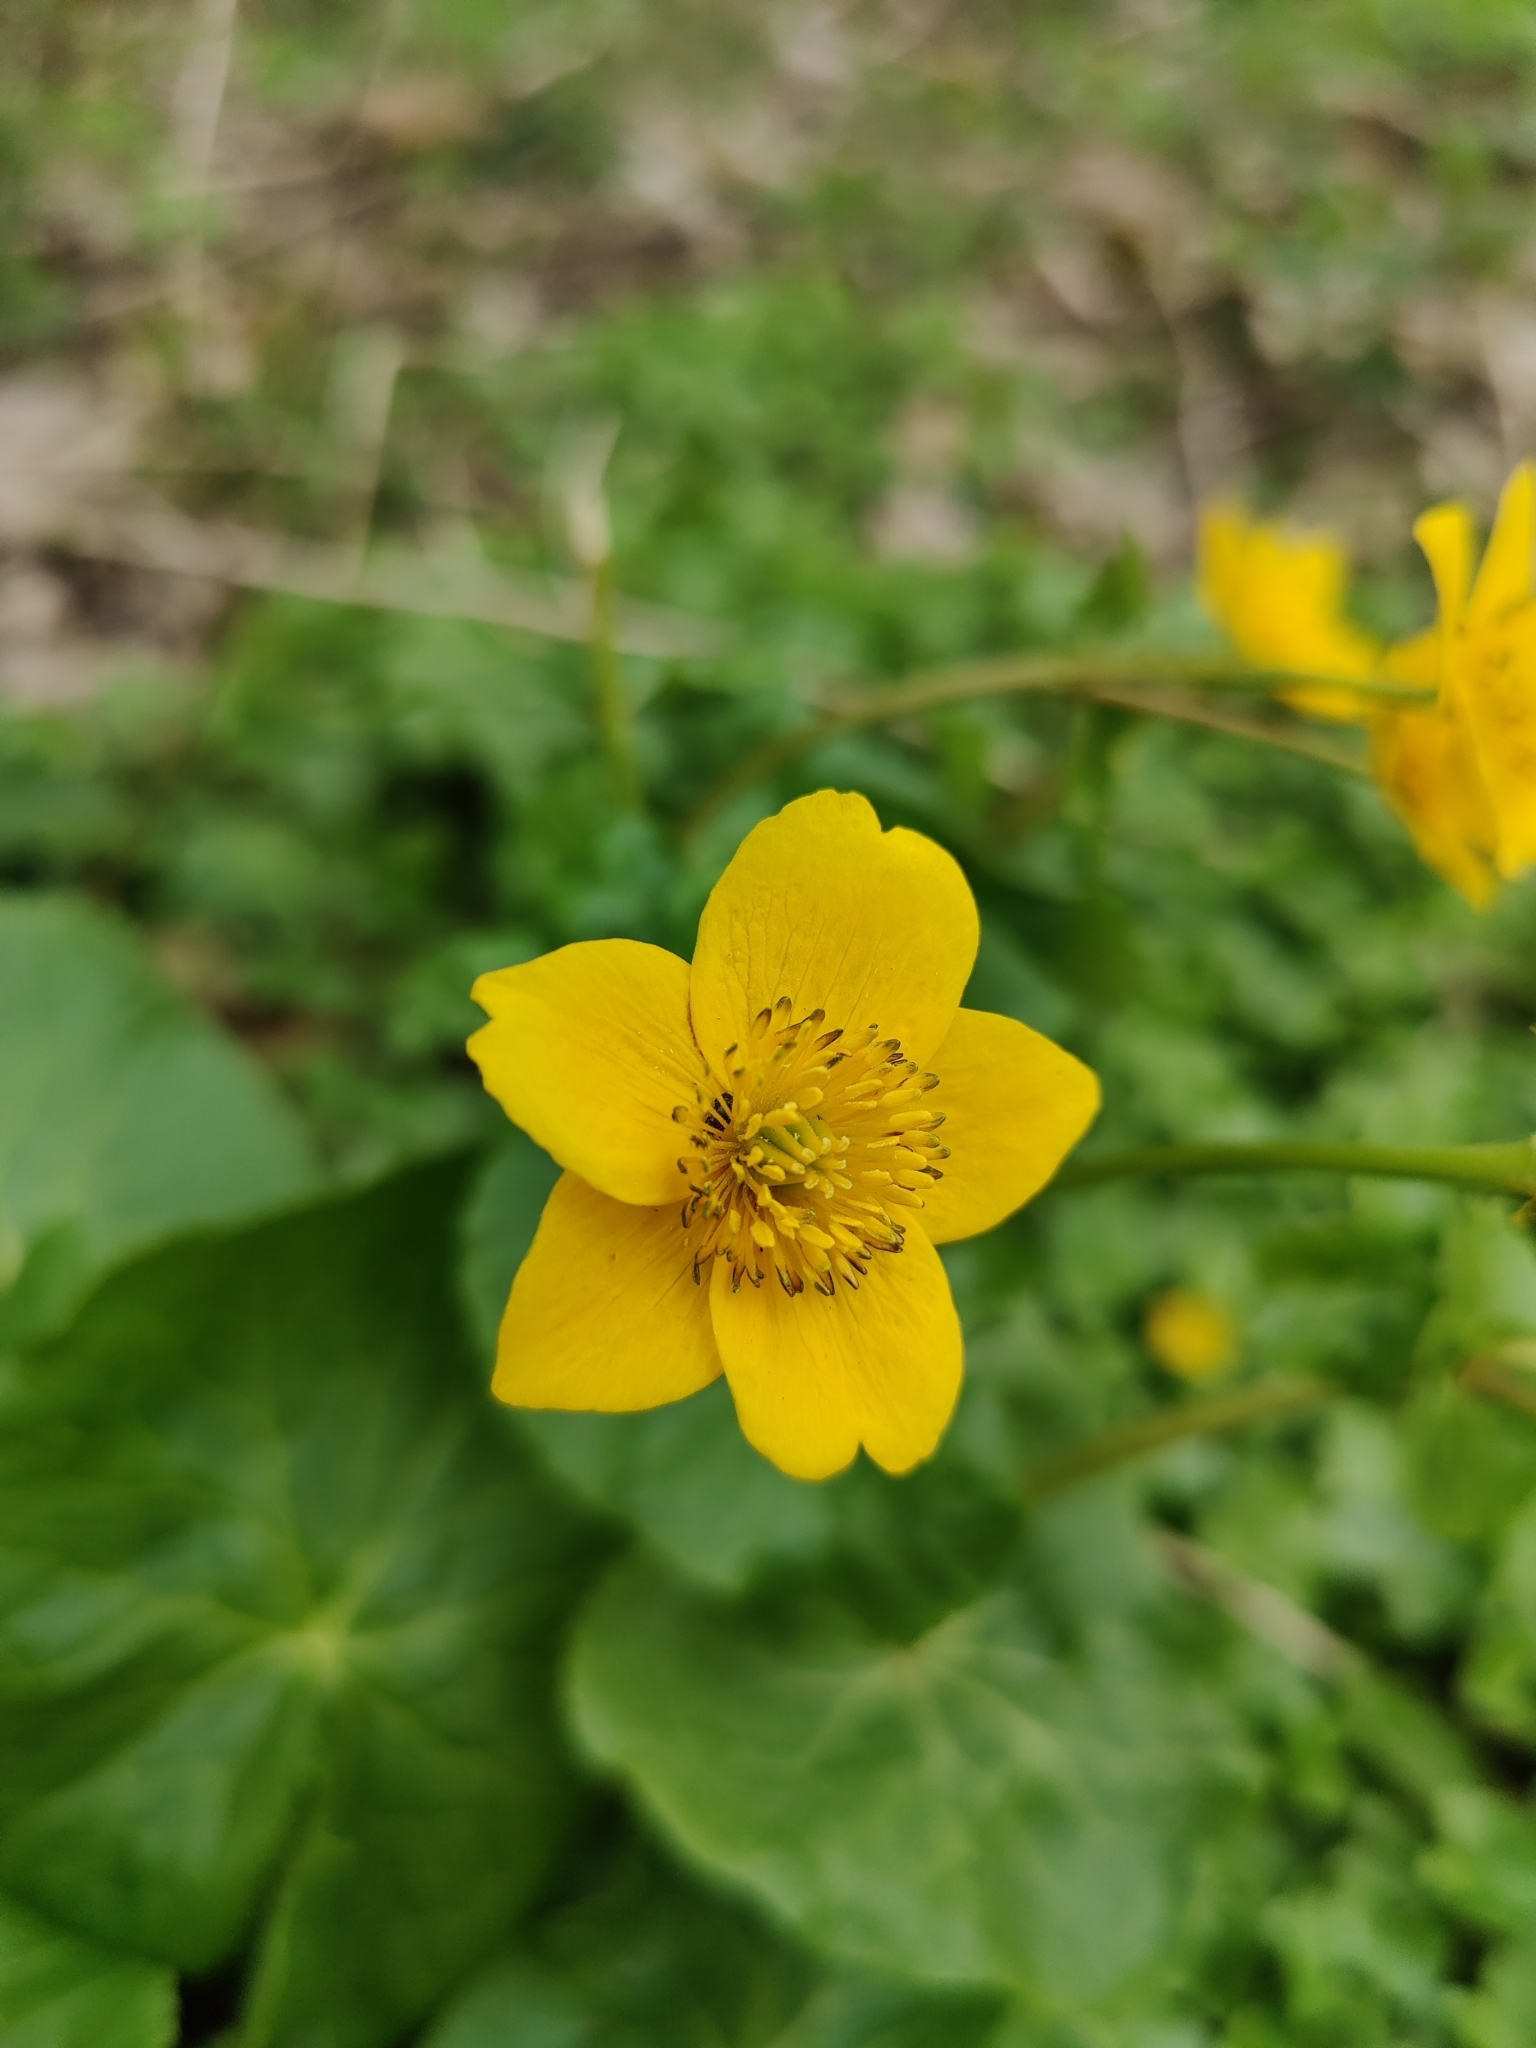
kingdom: Plantae
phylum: Tracheophyta
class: Magnoliopsida
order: Ranunculales
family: Ranunculaceae
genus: Caltha
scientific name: Caltha palustris
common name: Marsh marigold
